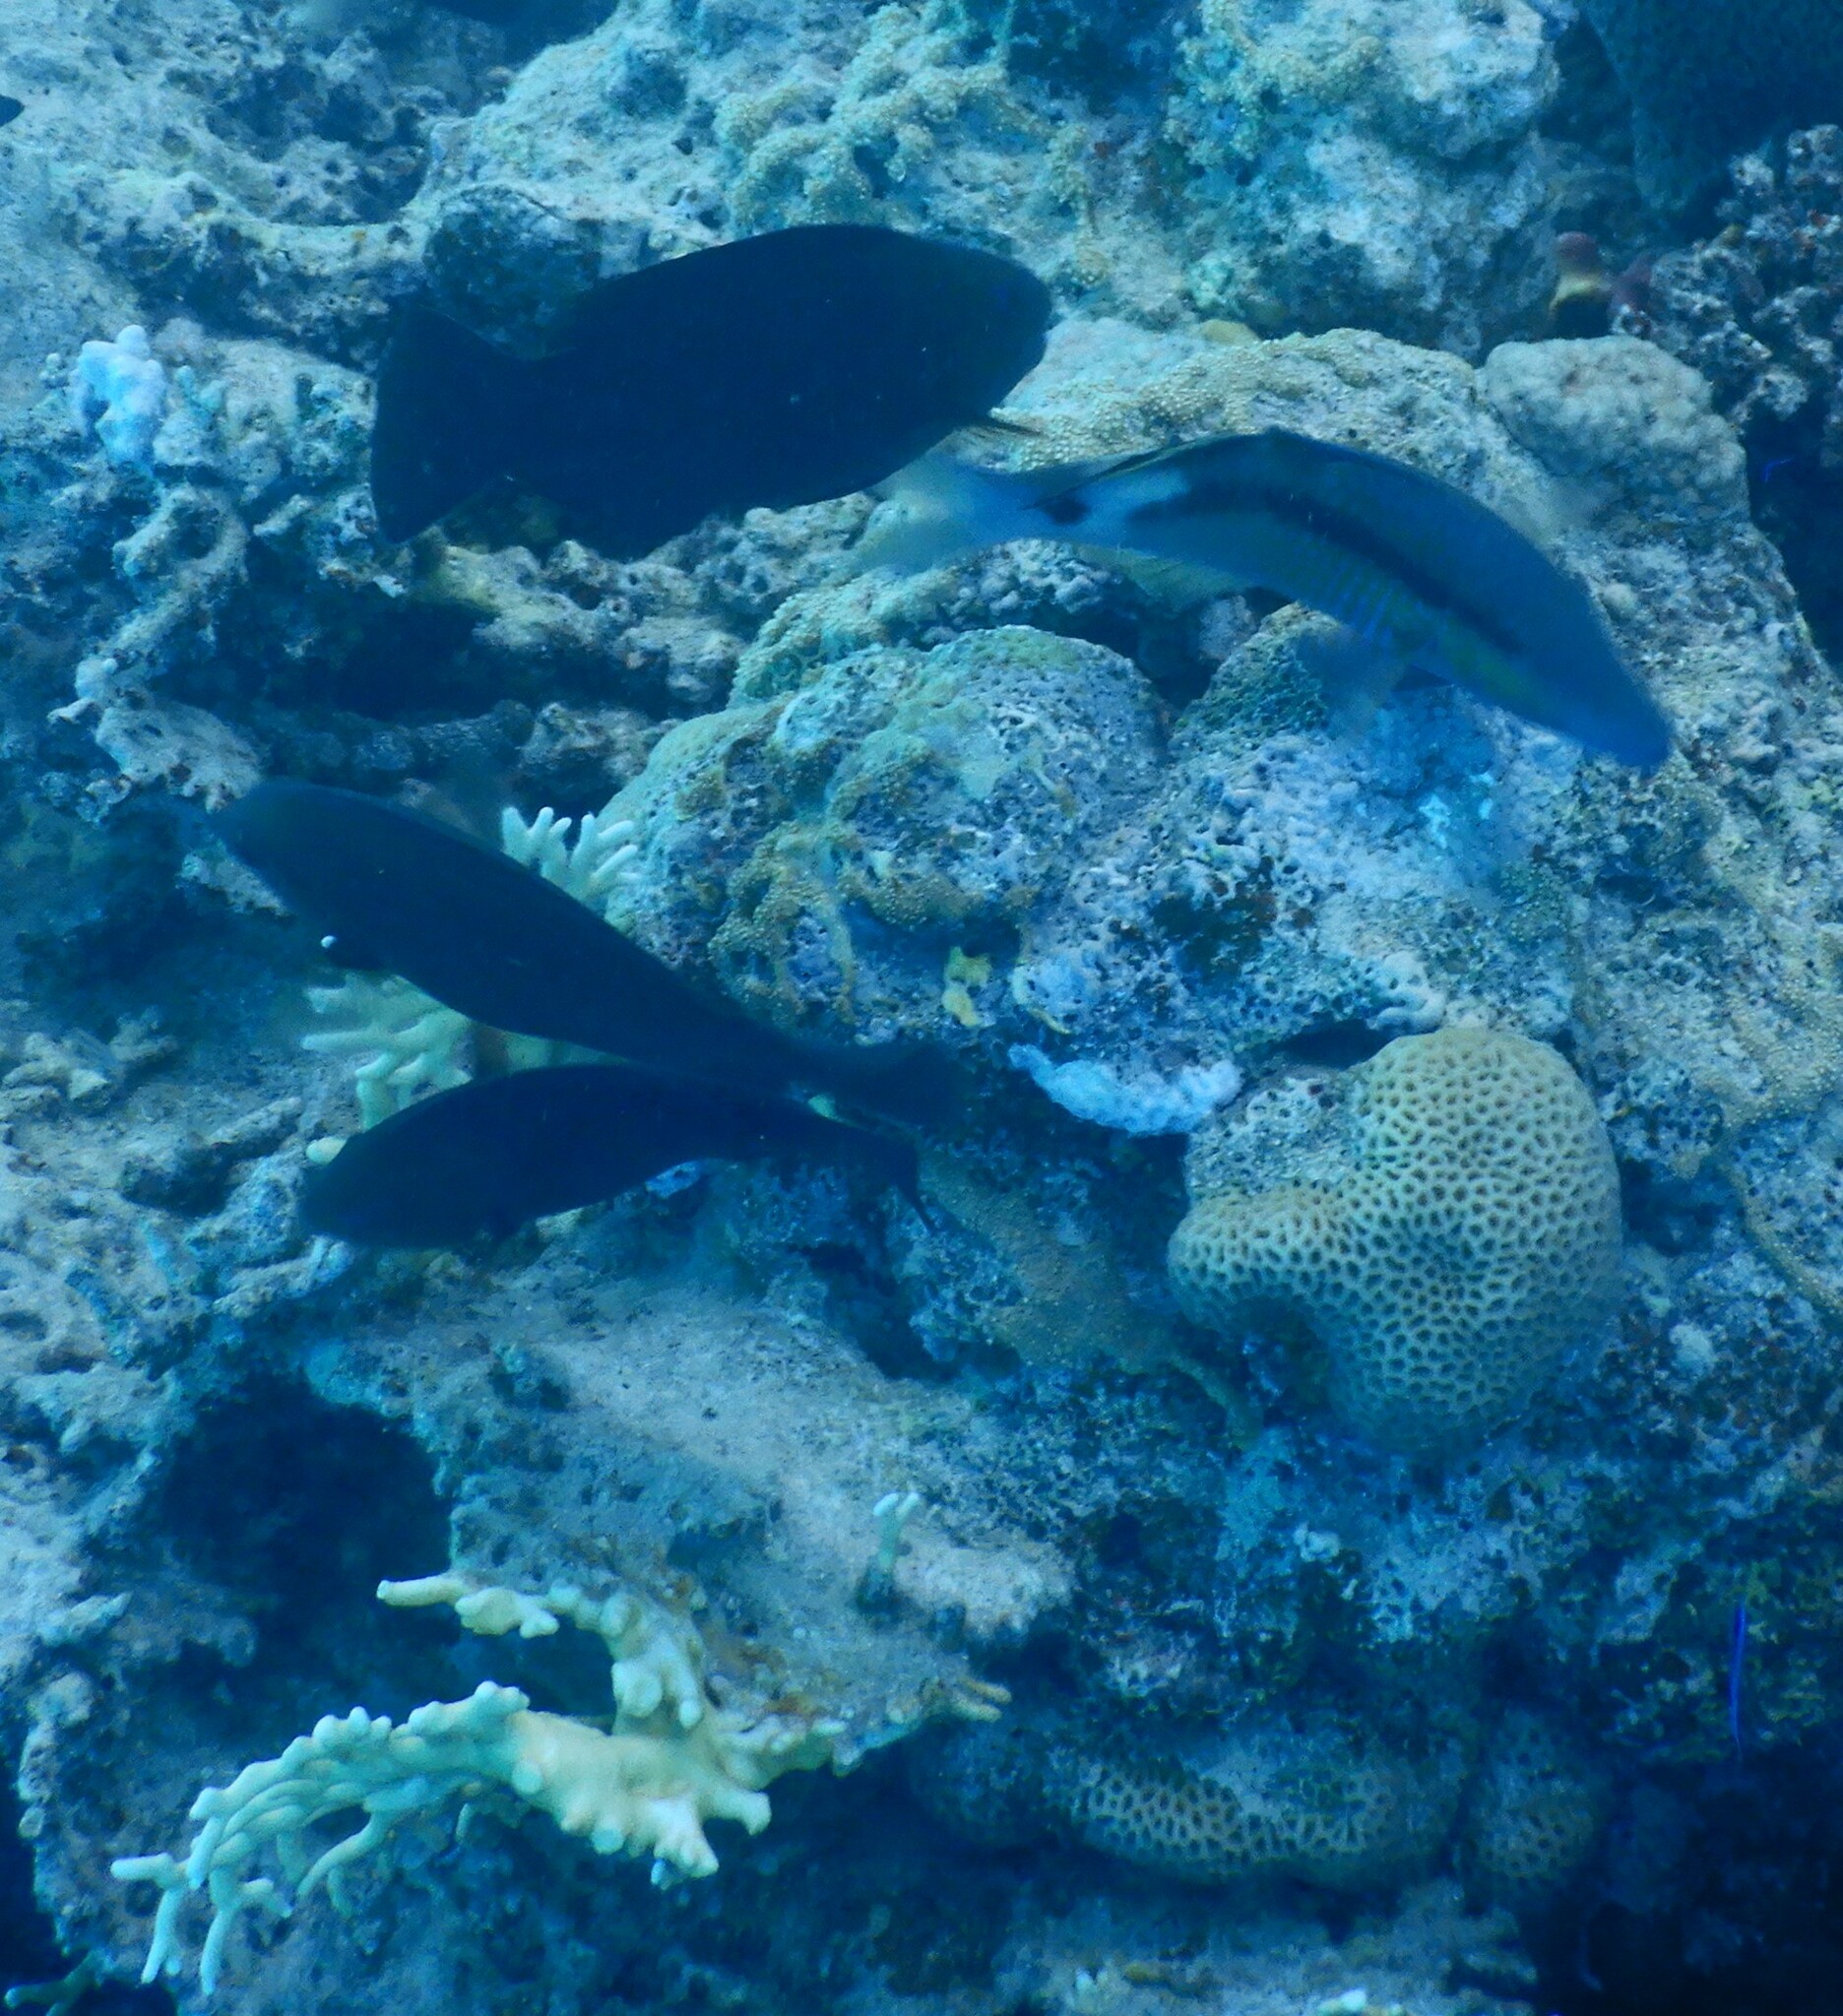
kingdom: Animalia
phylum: Chordata
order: Perciformes
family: Mullidae
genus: Parupeneus
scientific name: Parupeneus macronemus
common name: Long-barbel goatfish
